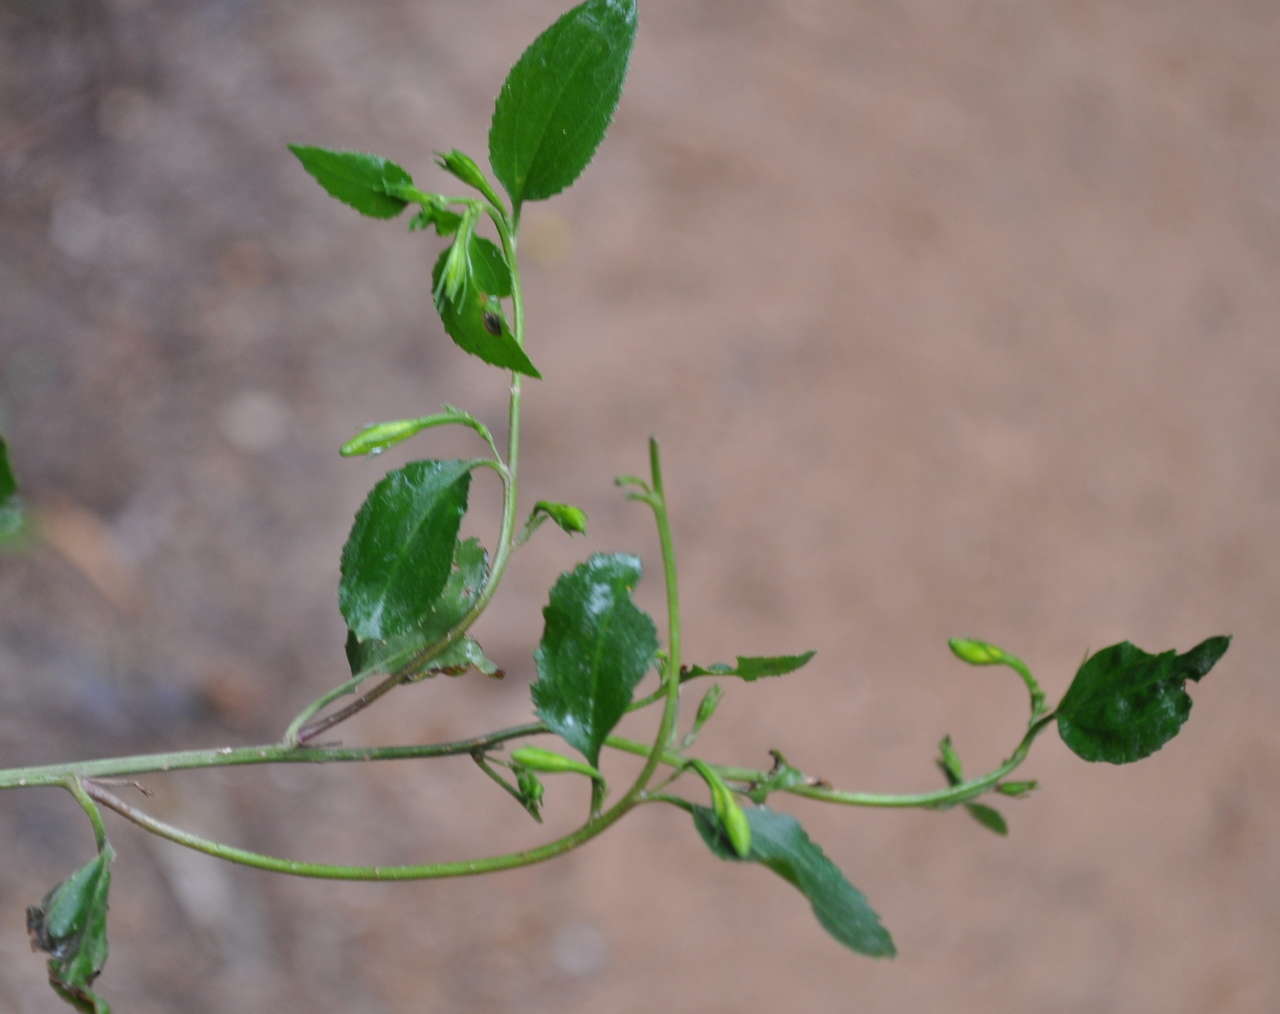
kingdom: Plantae
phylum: Tracheophyta
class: Magnoliopsida
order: Asterales
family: Goodeniaceae
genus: Goodenia
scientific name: Goodenia ovata
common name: Hop goodenia
